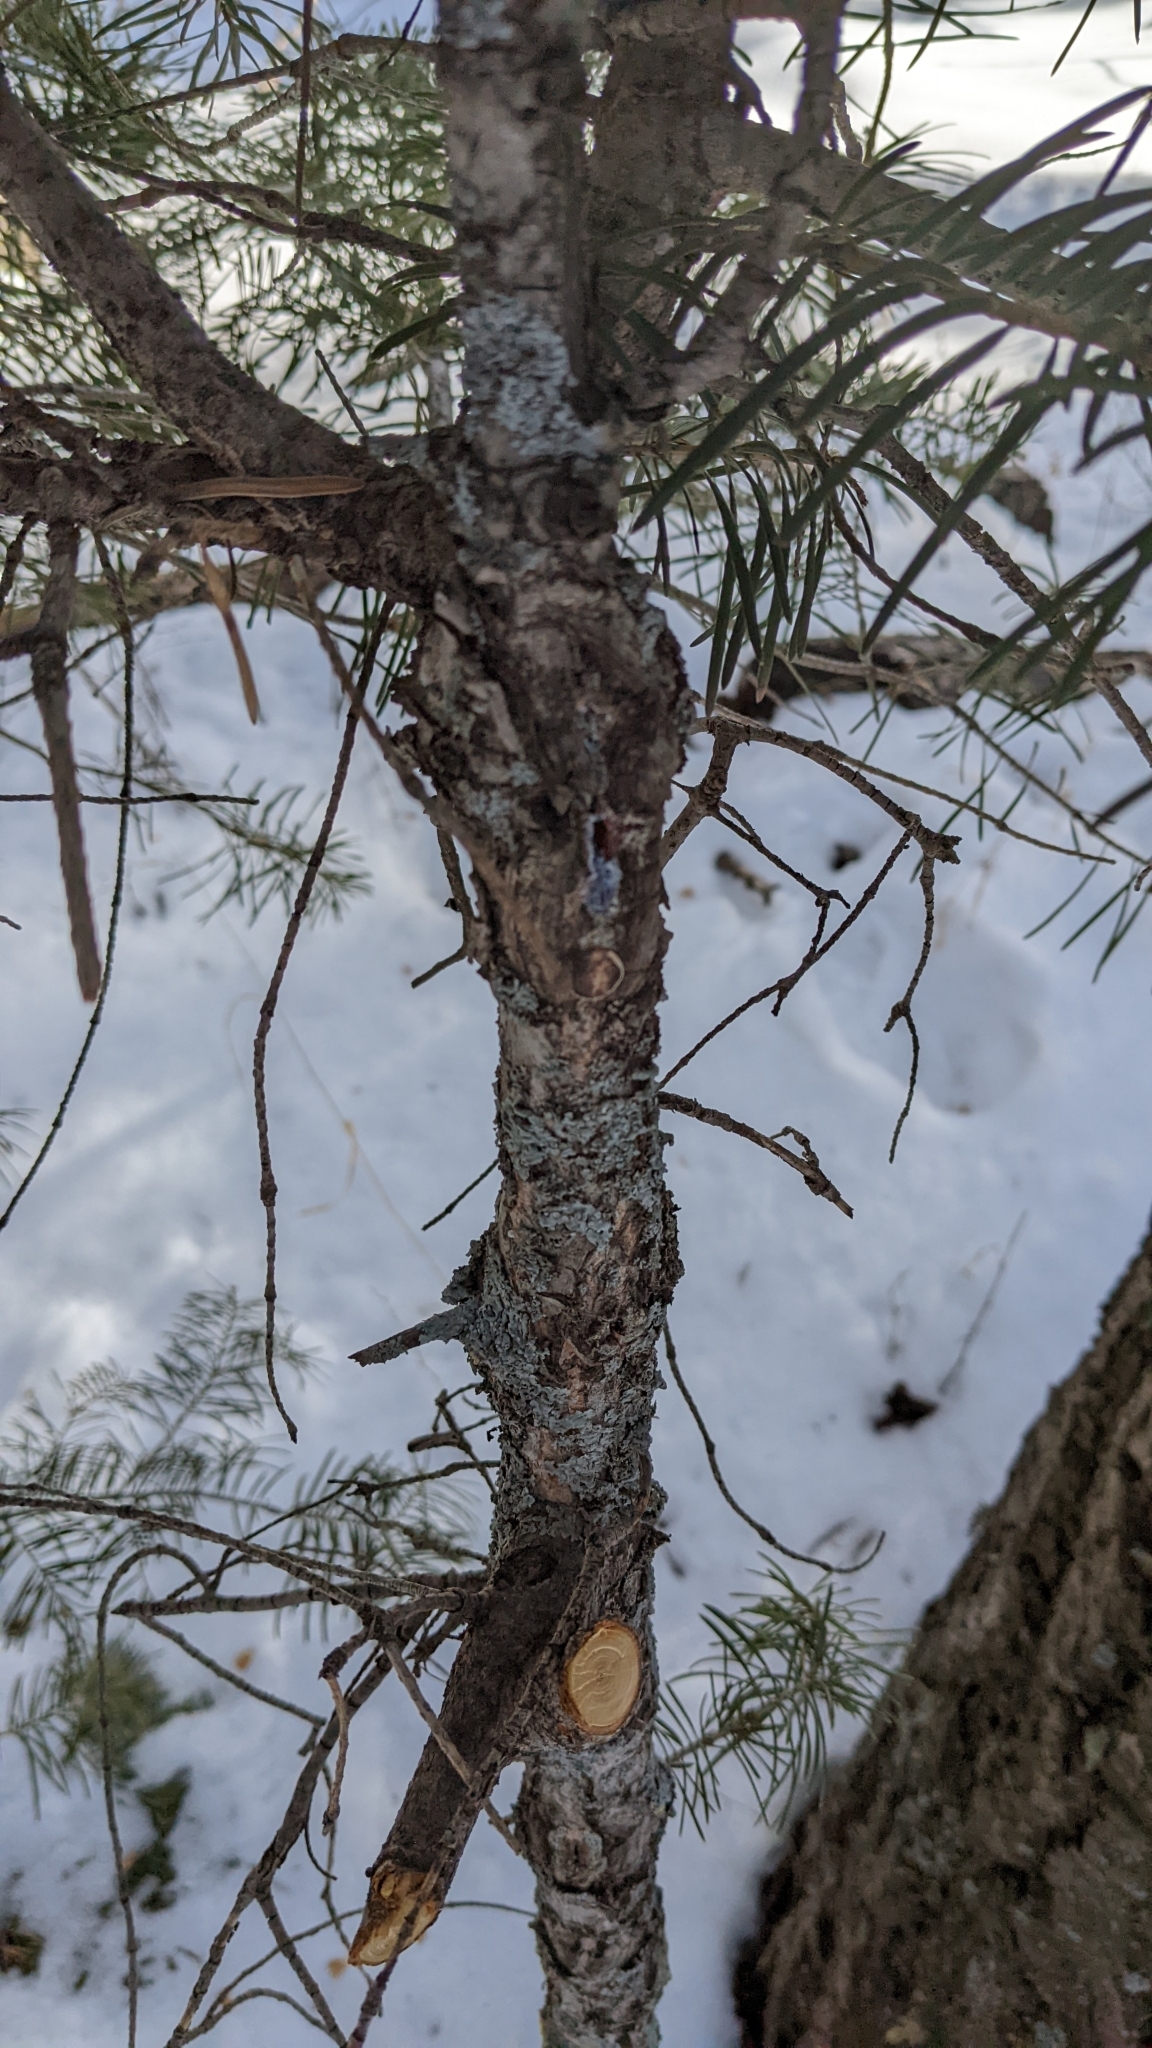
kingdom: Plantae
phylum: Tracheophyta
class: Pinopsida
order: Pinales
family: Pinaceae
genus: Abies
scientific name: Abies concolor
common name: Colorado fir
